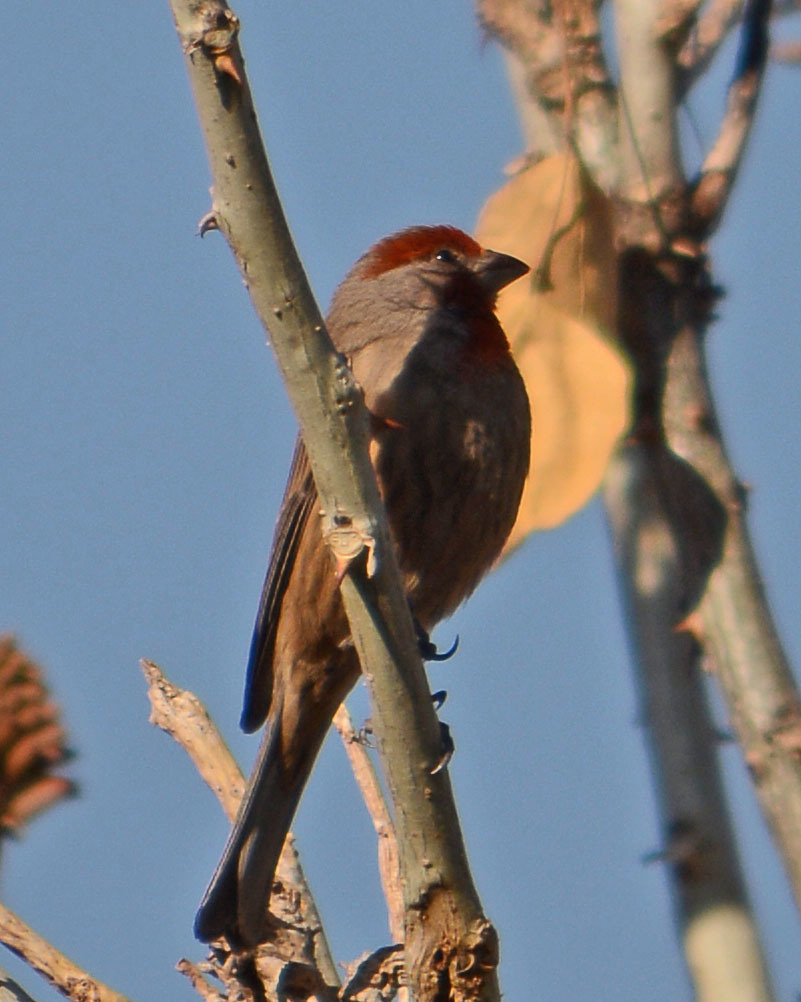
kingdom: Animalia
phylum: Chordata
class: Aves
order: Passeriformes
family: Fringillidae
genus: Haemorhous
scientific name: Haemorhous mexicanus
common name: House finch
